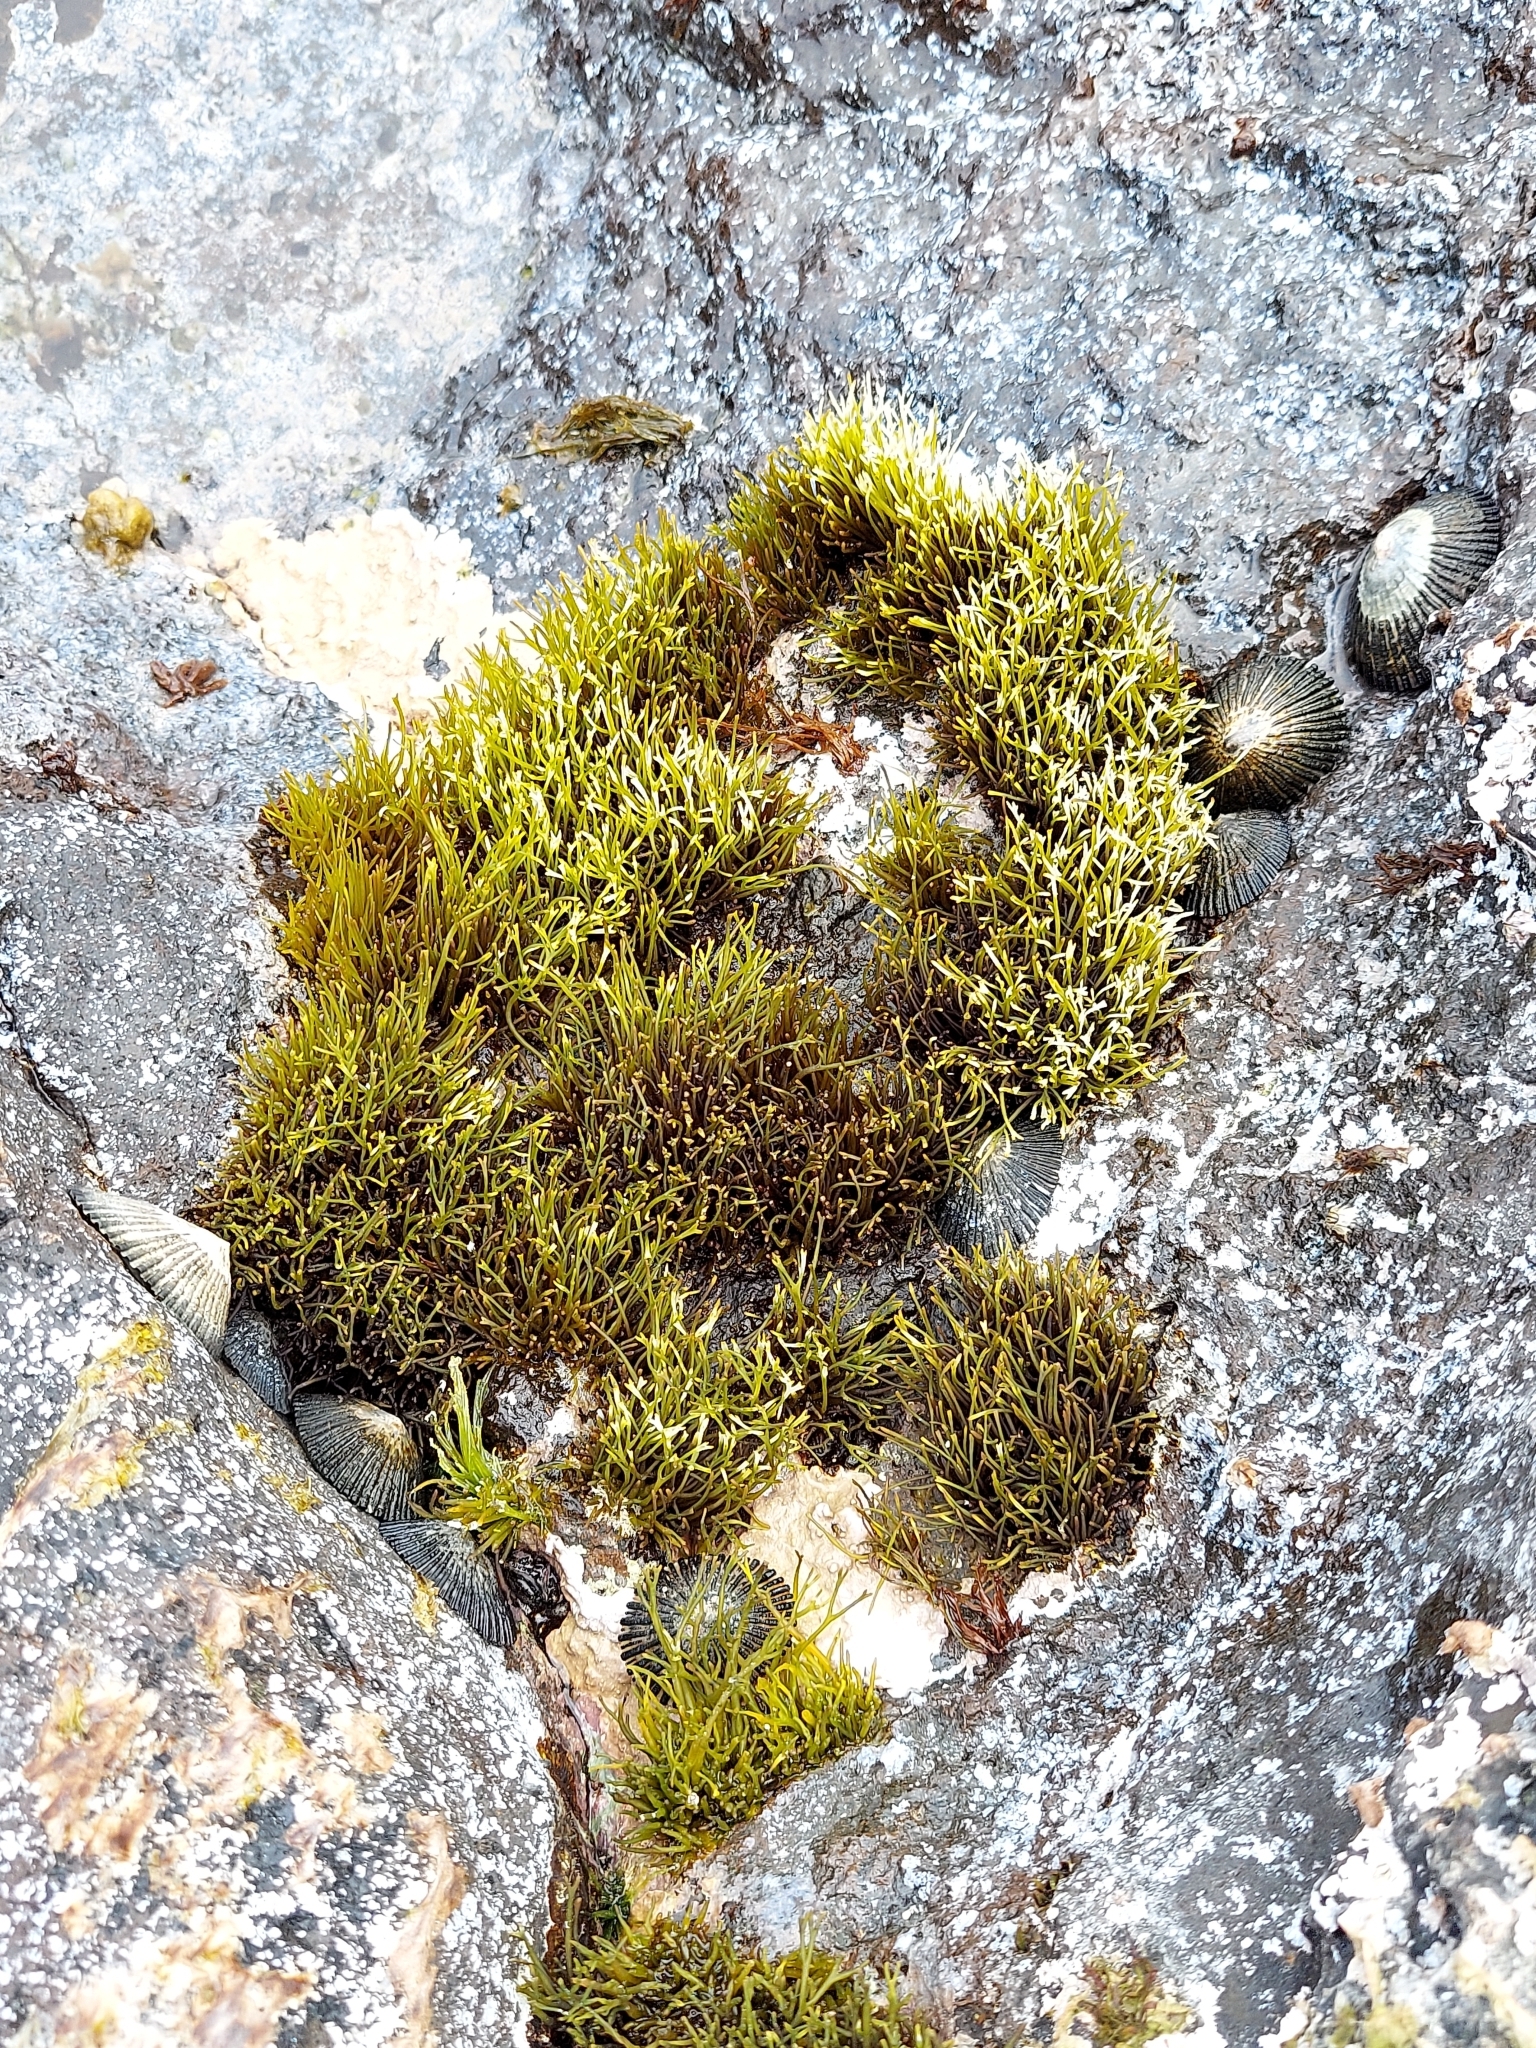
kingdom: Plantae
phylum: Rhodophyta
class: Florideophyceae
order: Gigartinales
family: Phyllophoraceae
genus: Gymnogongrus
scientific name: Gymnogongrus durvillei
